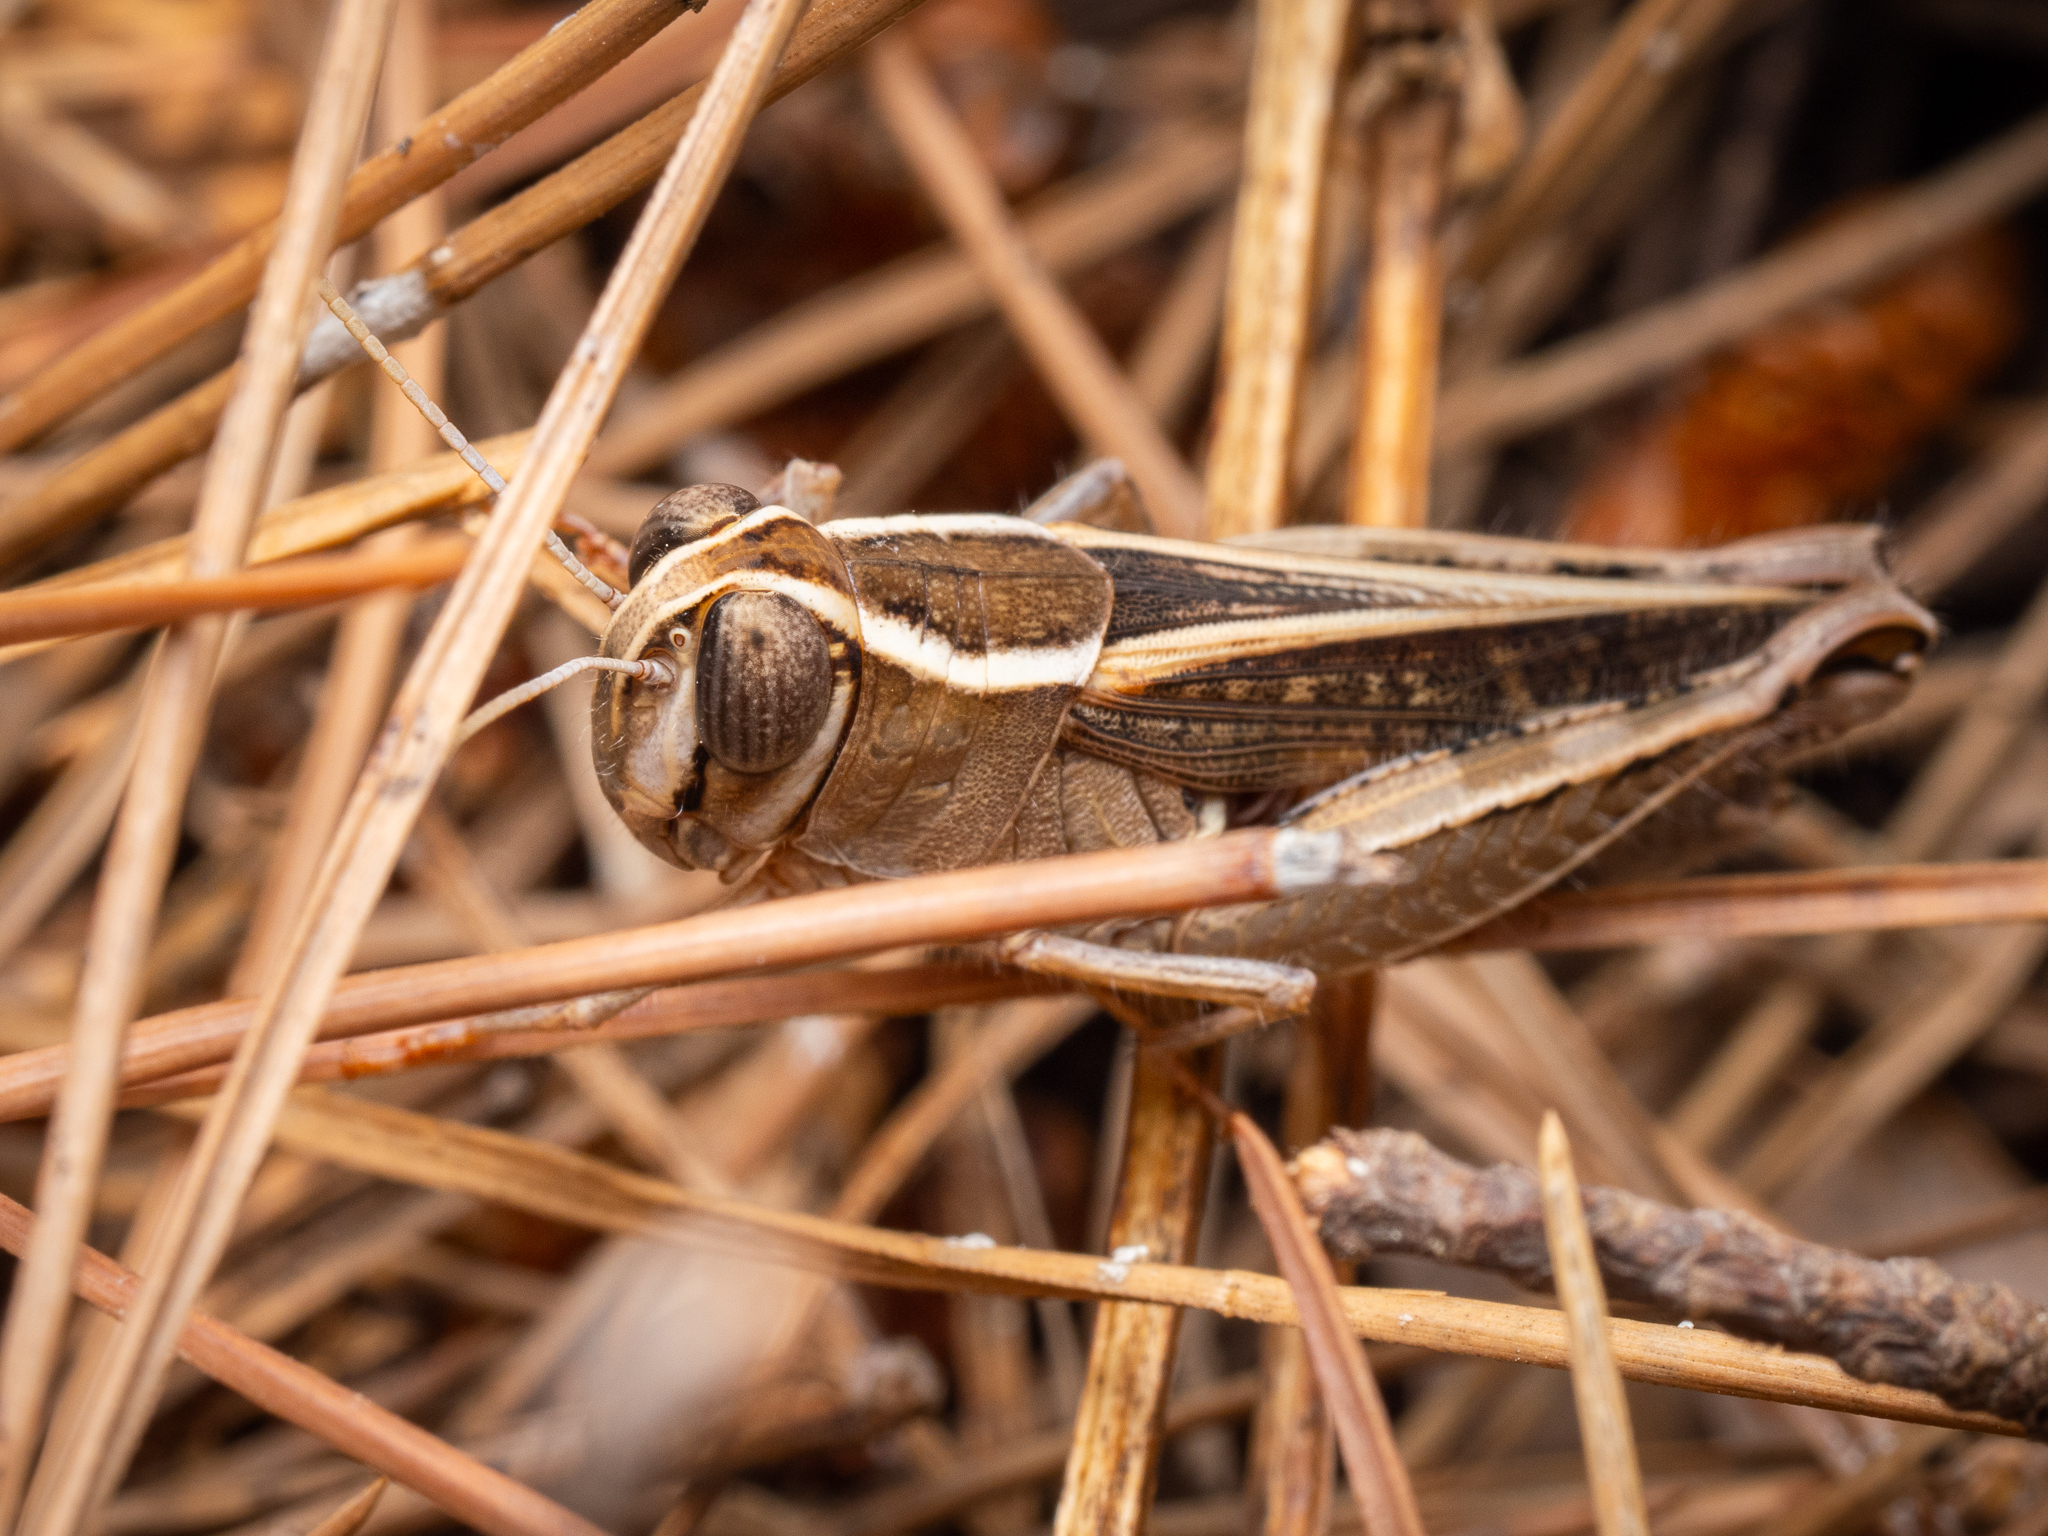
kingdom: Animalia
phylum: Arthropoda
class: Insecta
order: Orthoptera
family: Acrididae
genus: Calliptamus
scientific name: Calliptamus barbarus
